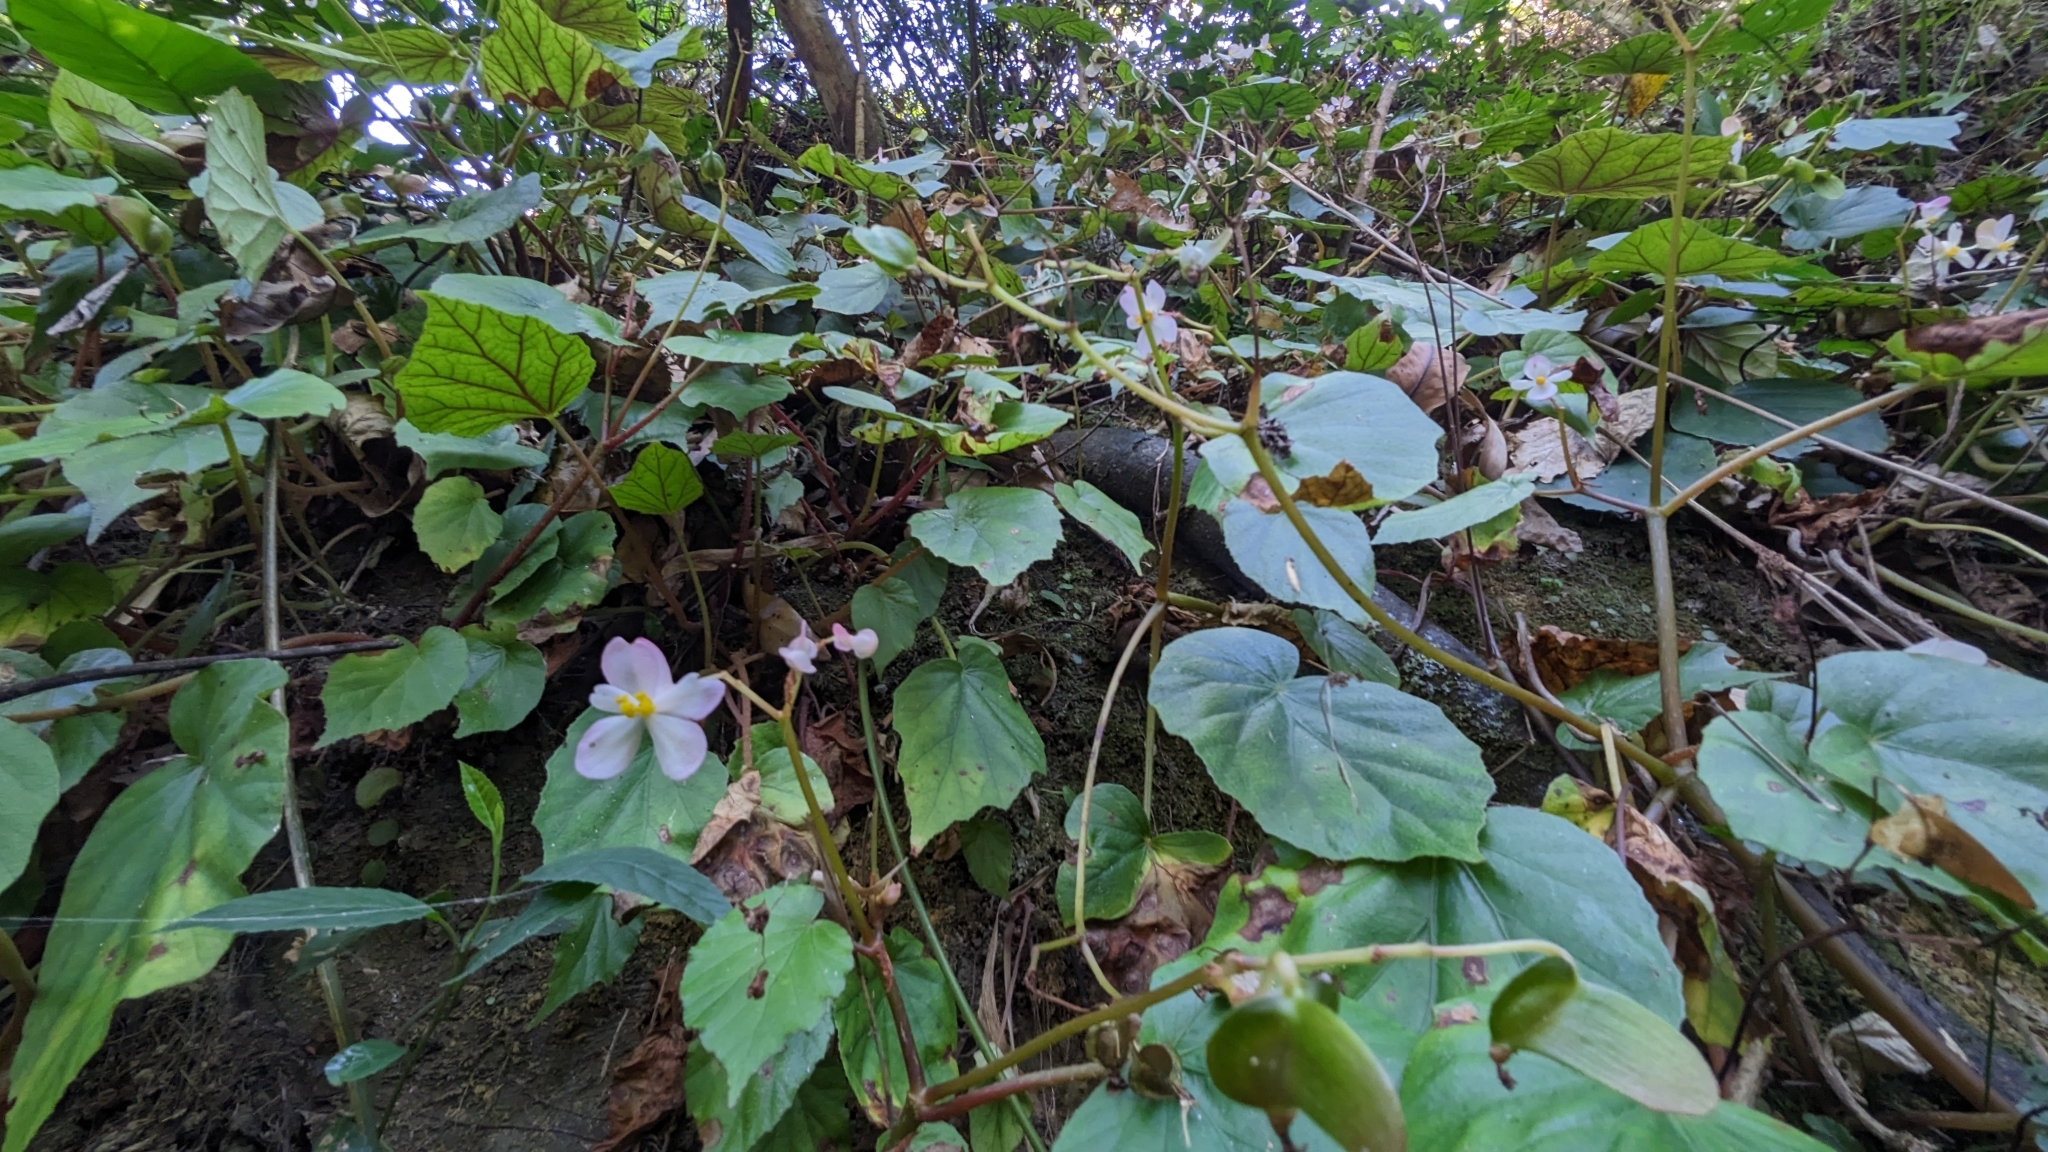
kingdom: Plantae
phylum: Tracheophyta
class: Magnoliopsida
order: Cucurbitales
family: Begoniaceae
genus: Begonia
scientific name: Begonia chitoensis
